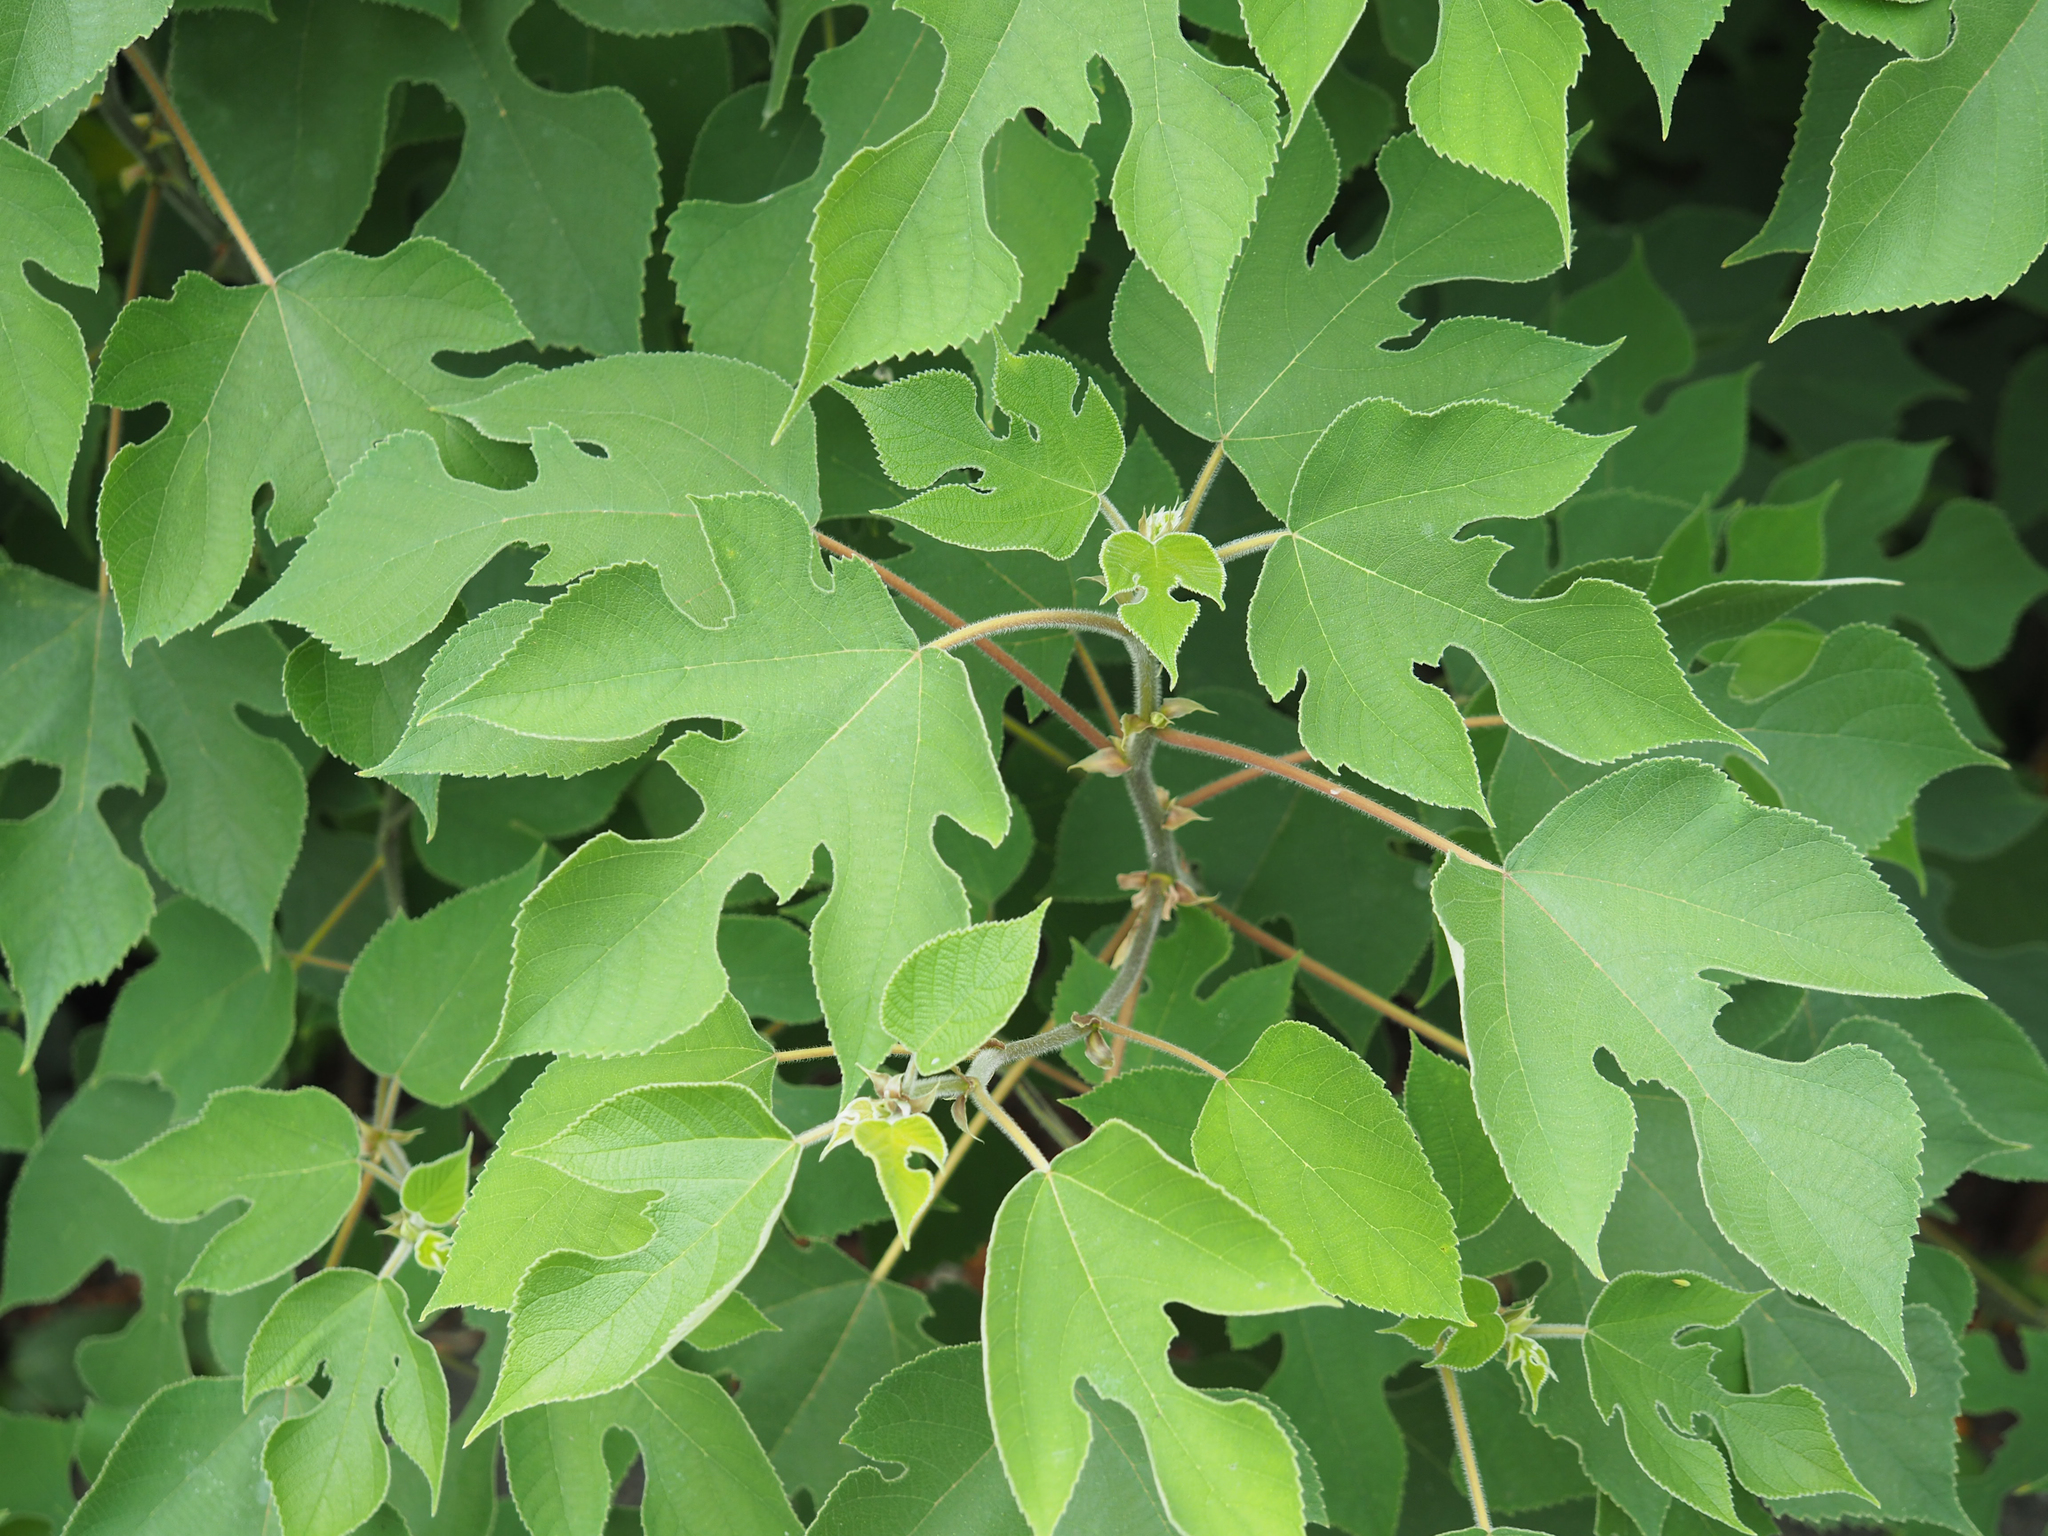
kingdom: Plantae
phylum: Tracheophyta
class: Magnoliopsida
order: Rosales
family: Moraceae
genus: Broussonetia
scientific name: Broussonetia papyrifera
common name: Paper mulberry
